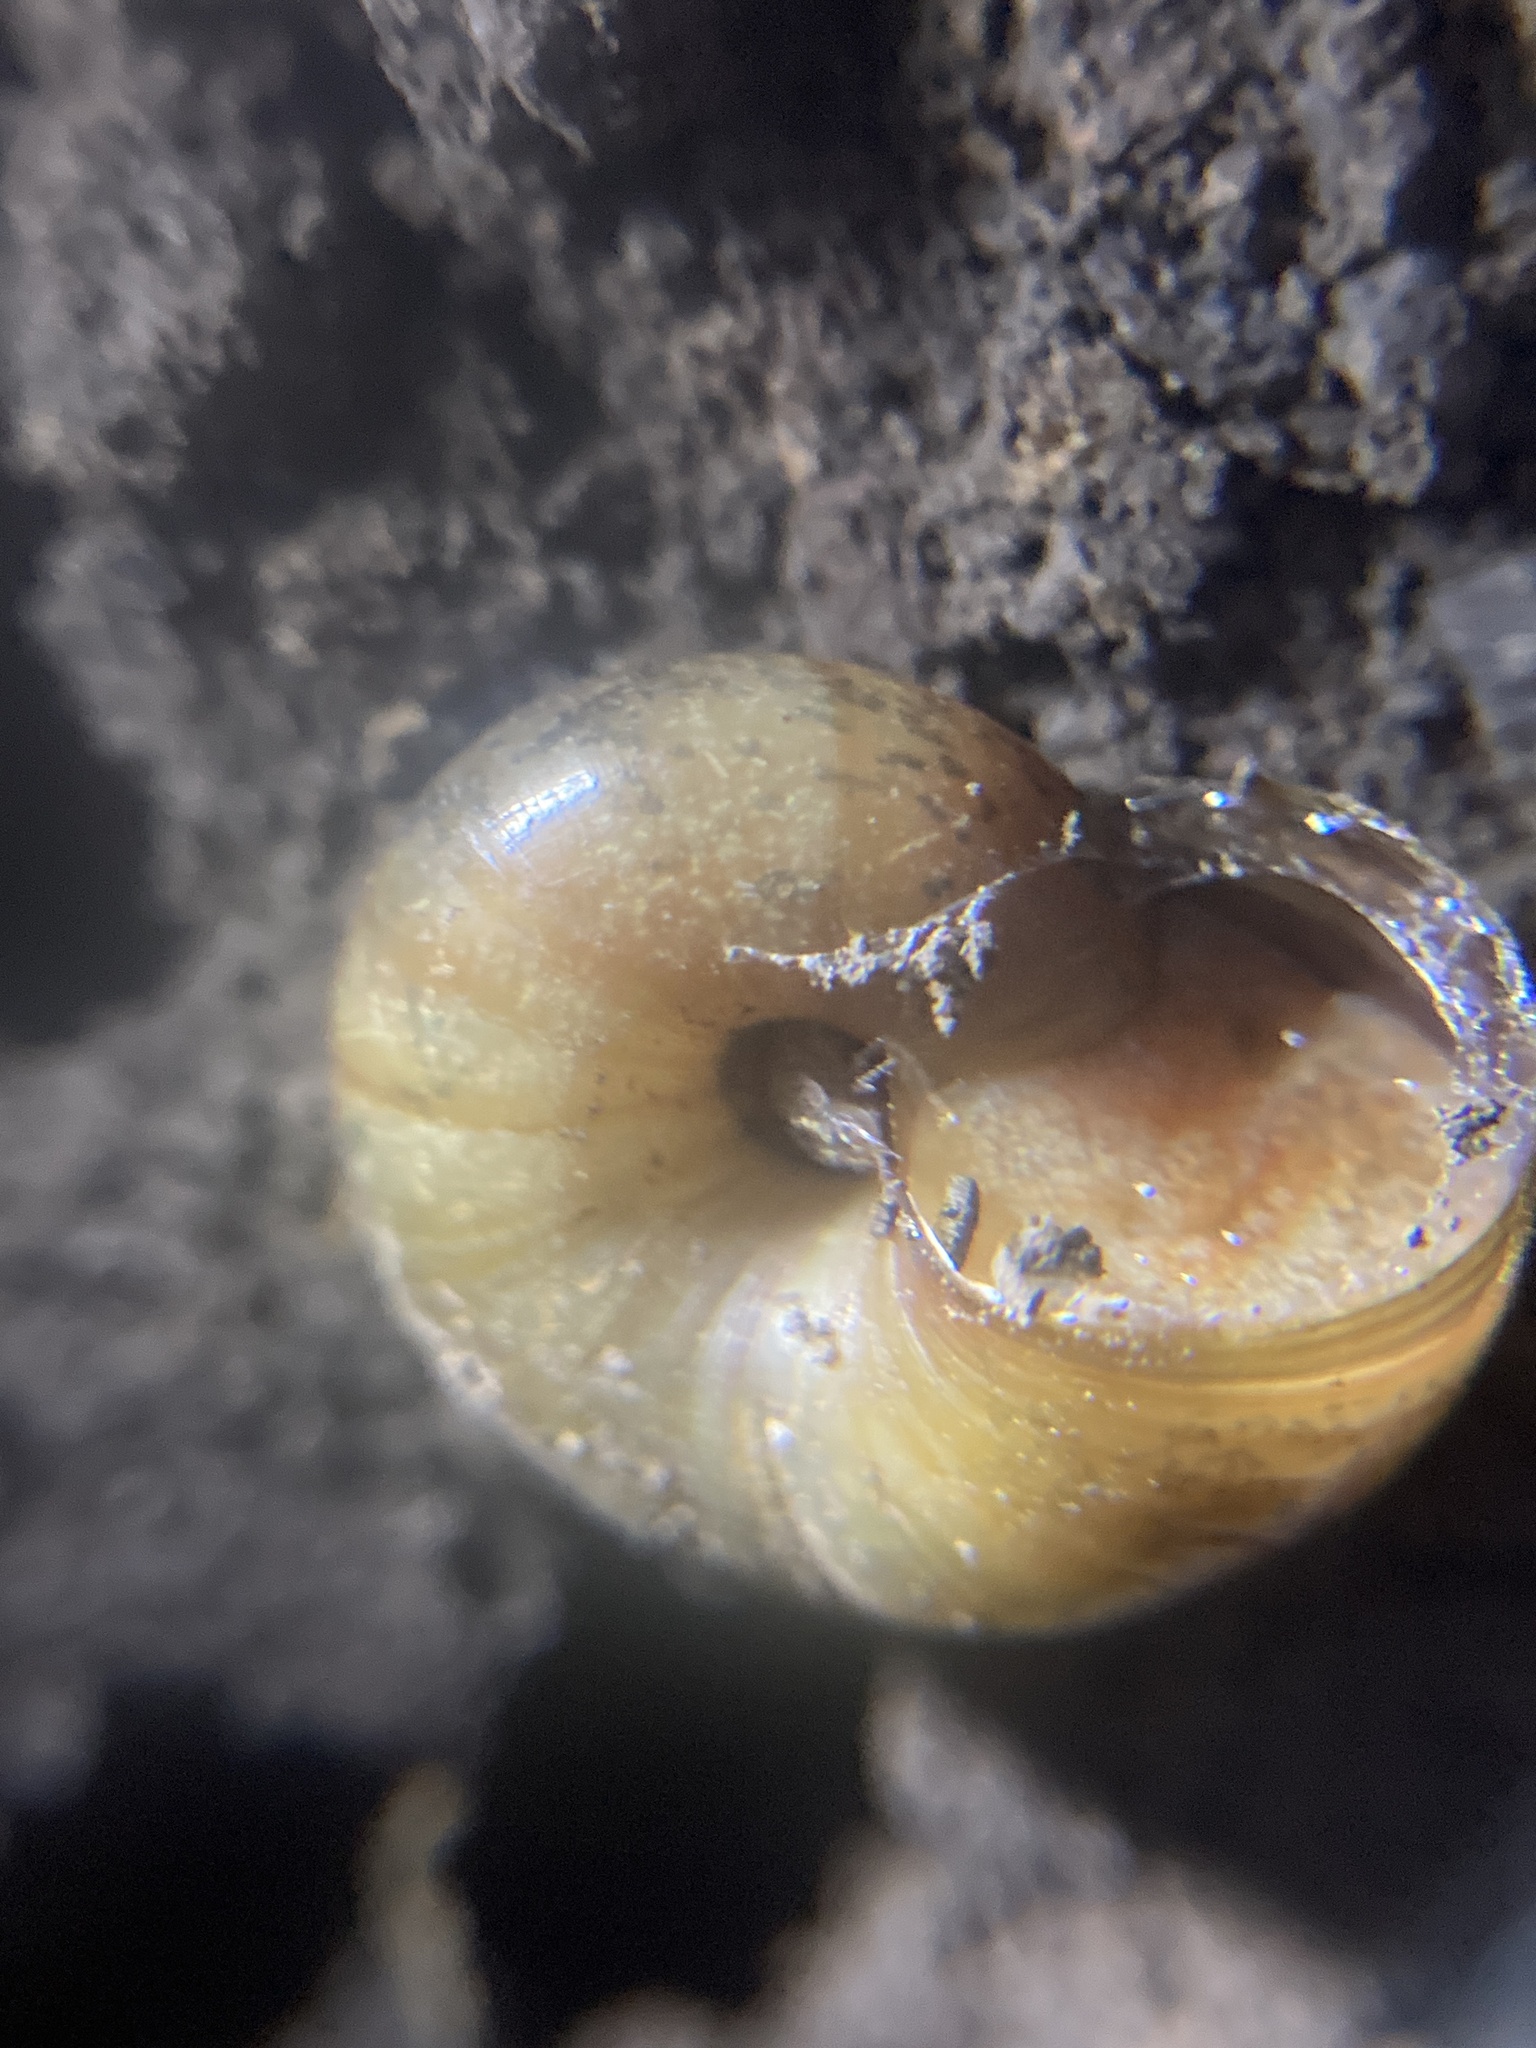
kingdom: Animalia
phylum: Mollusca
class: Gastropoda
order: Stylommatophora
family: Rhytididae
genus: Austrorhytida
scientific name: Austrorhytida capillacea
